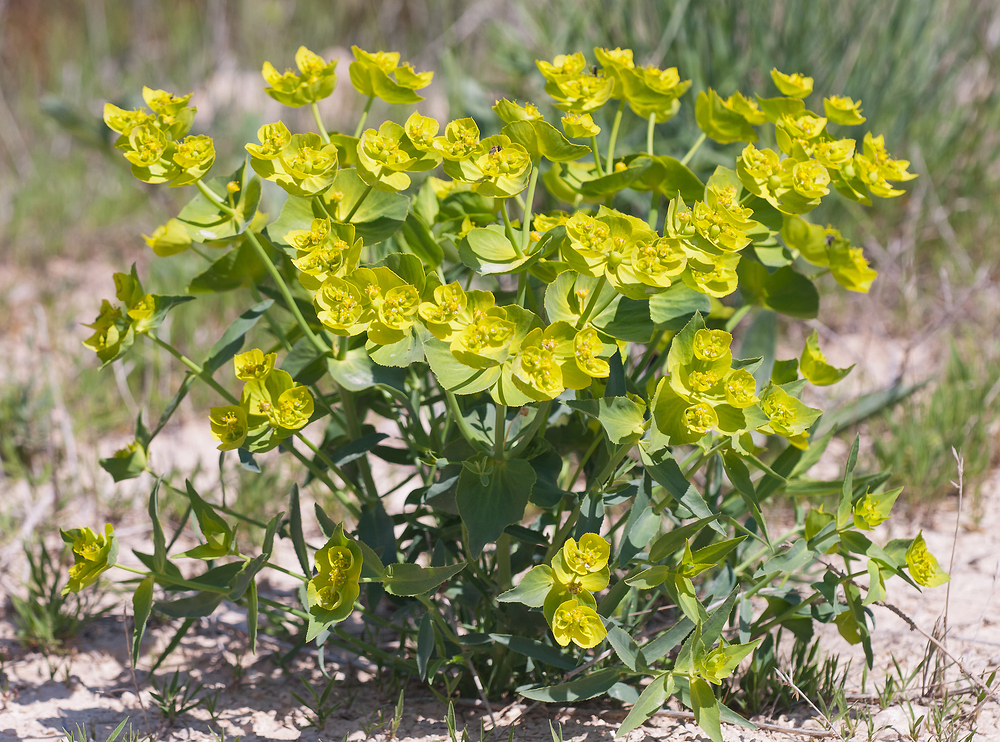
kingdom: Plantae
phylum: Tracheophyta
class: Magnoliopsida
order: Malpighiales
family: Euphorbiaceae
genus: Euphorbia
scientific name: Euphorbia serrata
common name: Serrate spurge
